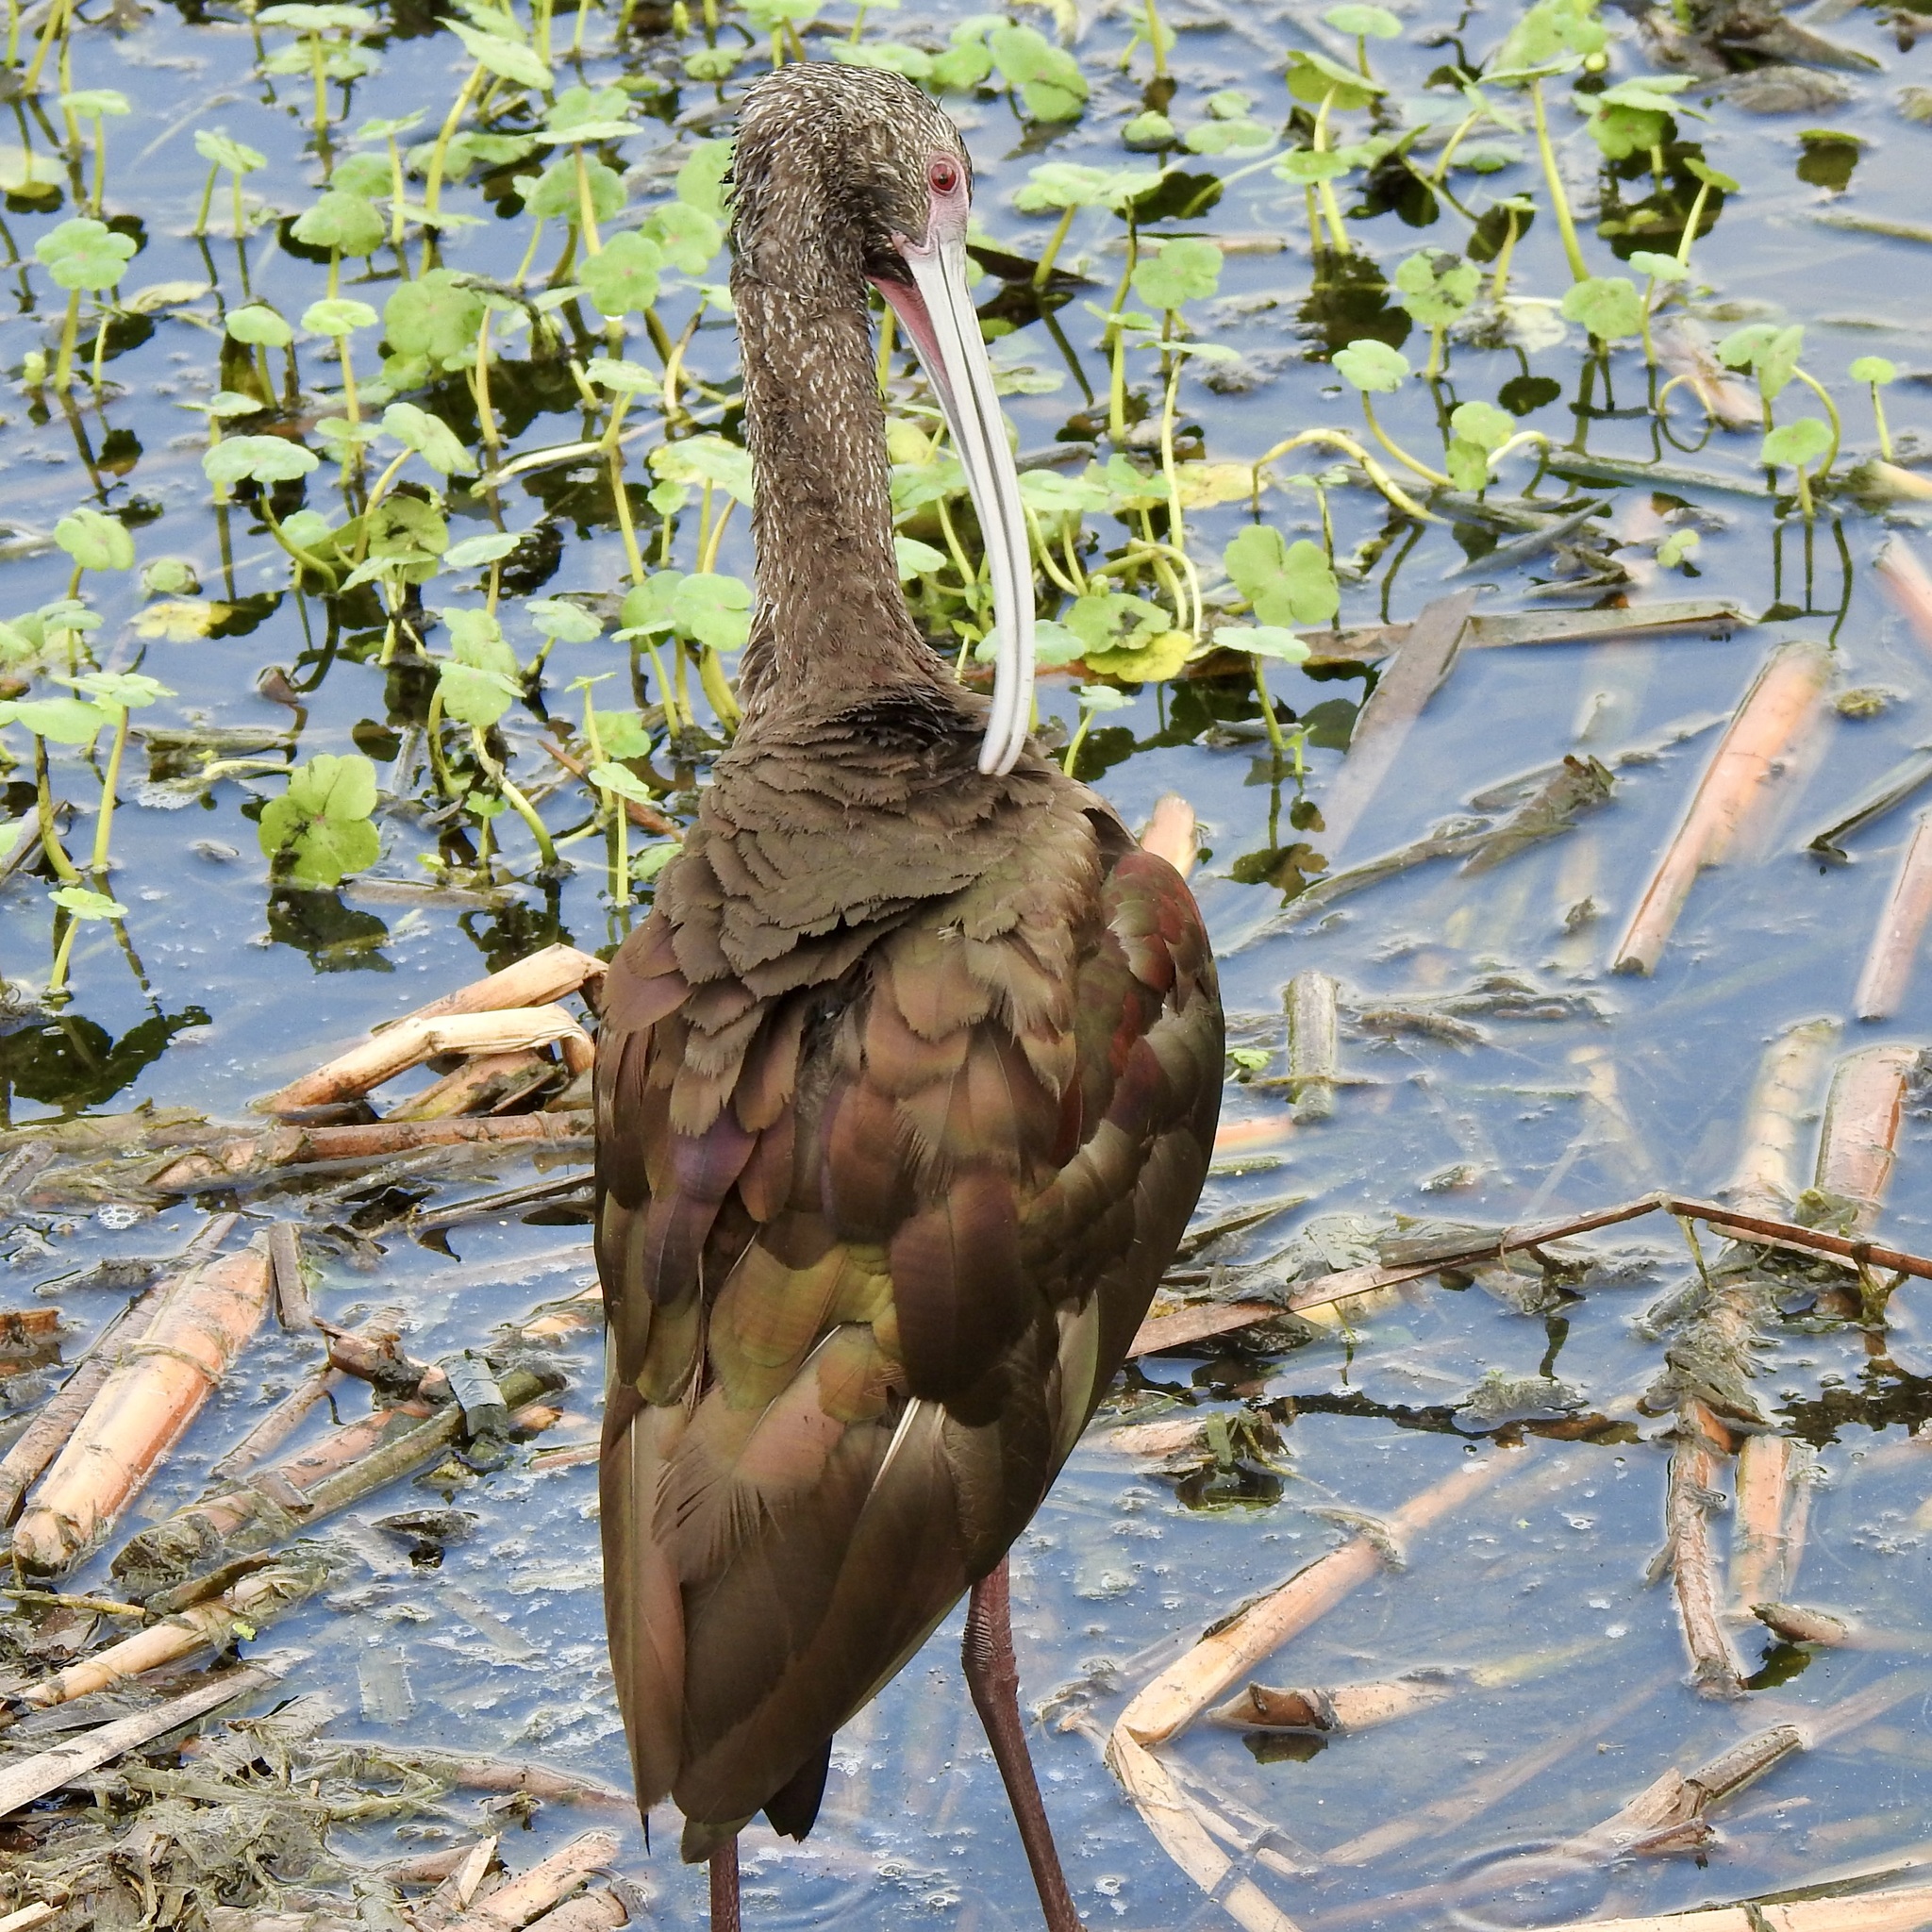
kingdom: Animalia
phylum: Chordata
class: Aves
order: Pelecaniformes
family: Threskiornithidae
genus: Plegadis
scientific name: Plegadis chihi
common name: White-faced ibis
